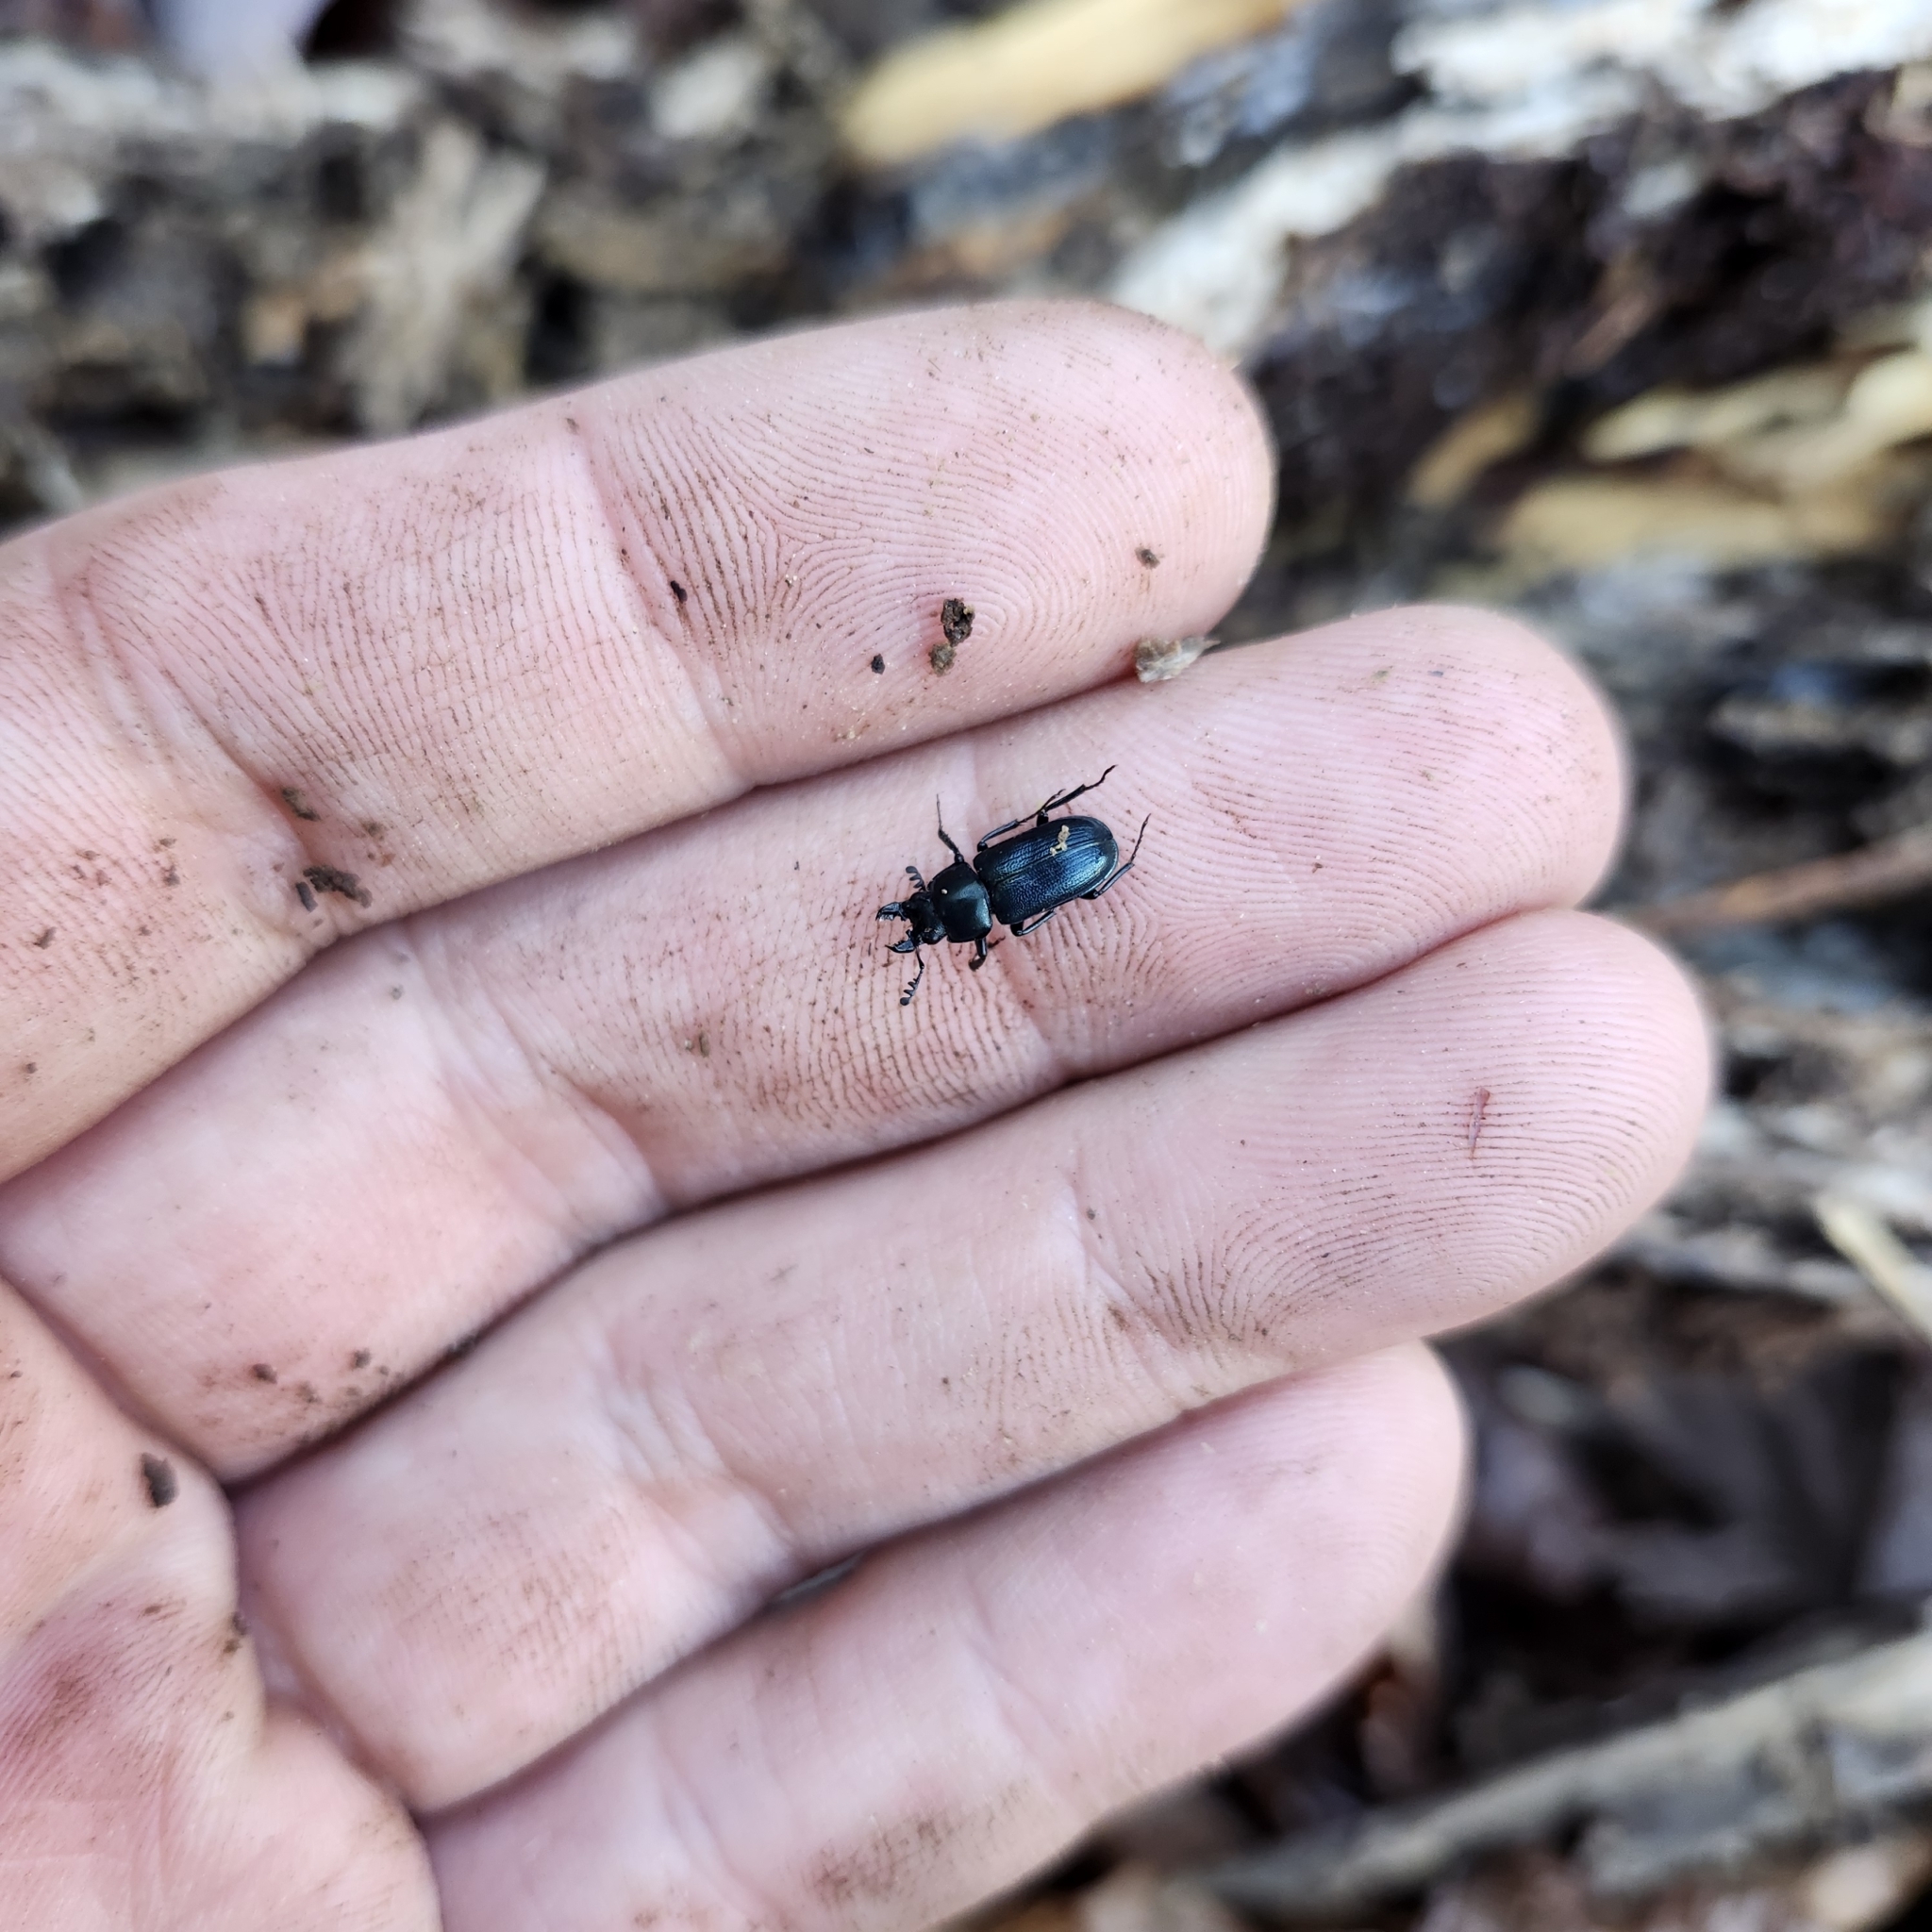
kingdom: Animalia
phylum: Arthropoda
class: Insecta
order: Coleoptera
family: Lucanidae
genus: Platycerus
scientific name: Platycerus quercus
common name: Oak stag beetle
